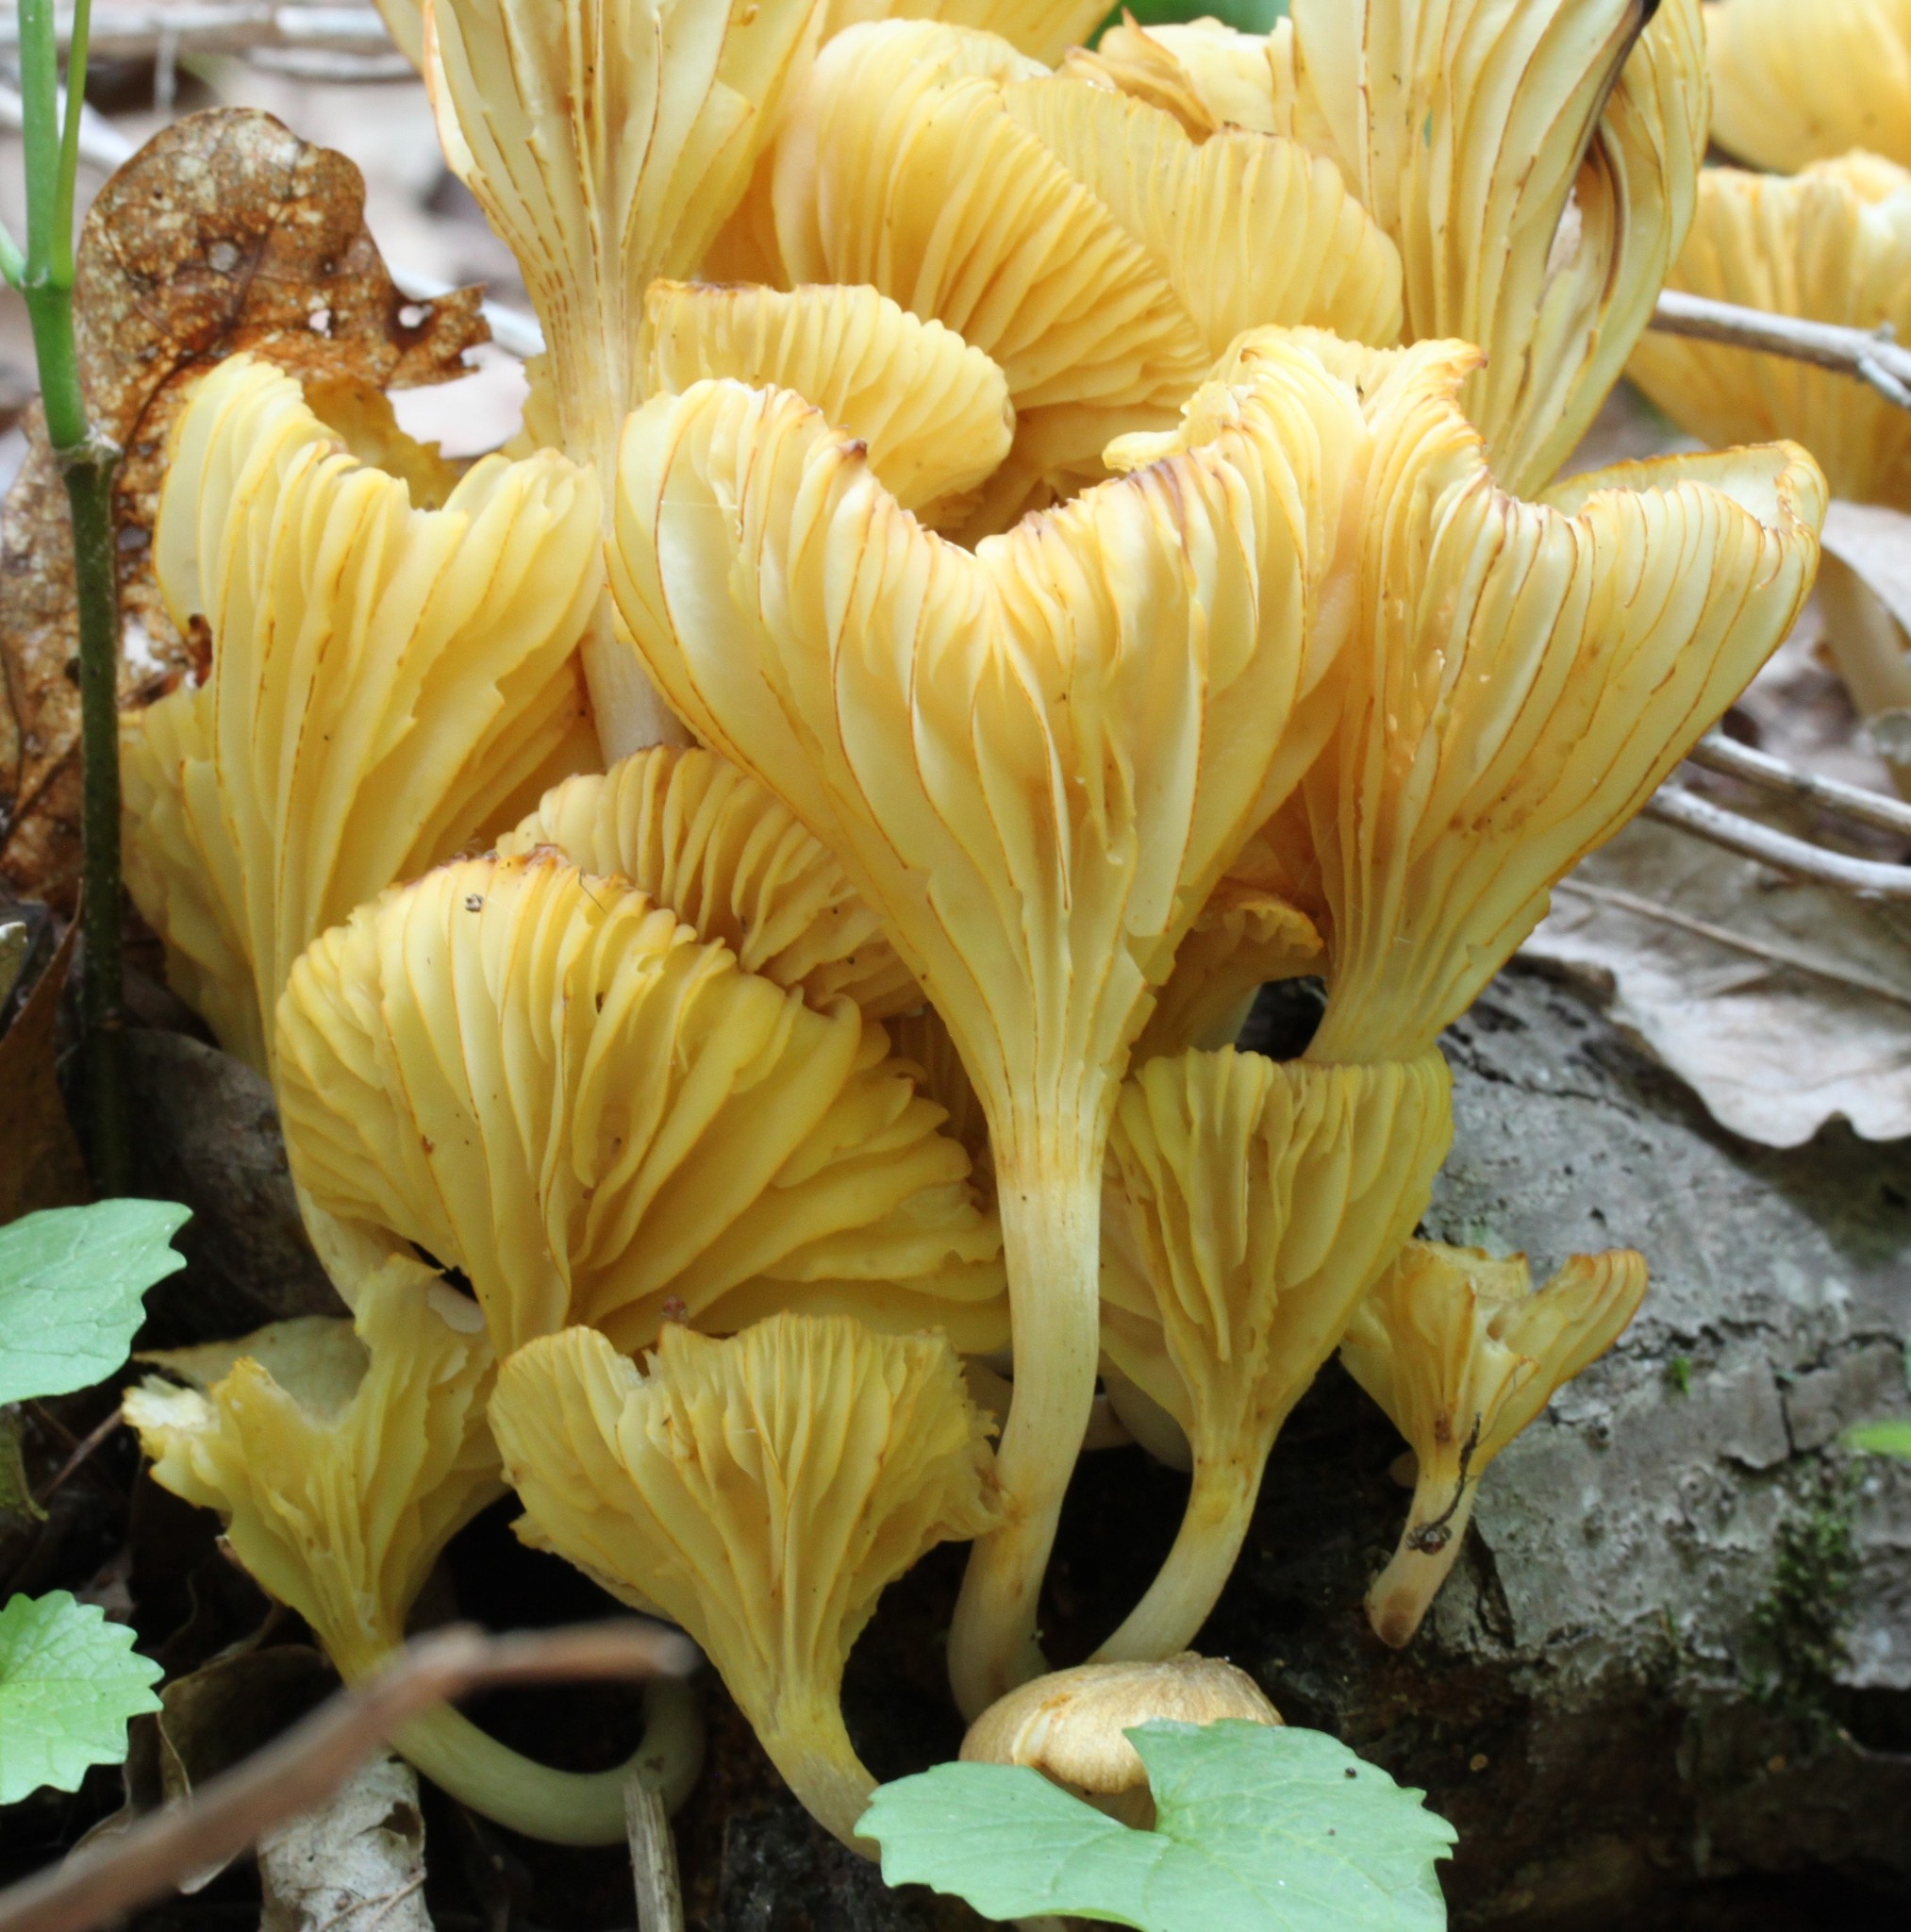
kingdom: Fungi
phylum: Basidiomycota
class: Agaricomycetes
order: Agaricales
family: Marasmiaceae
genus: Gerronema
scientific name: Gerronema strombodes
